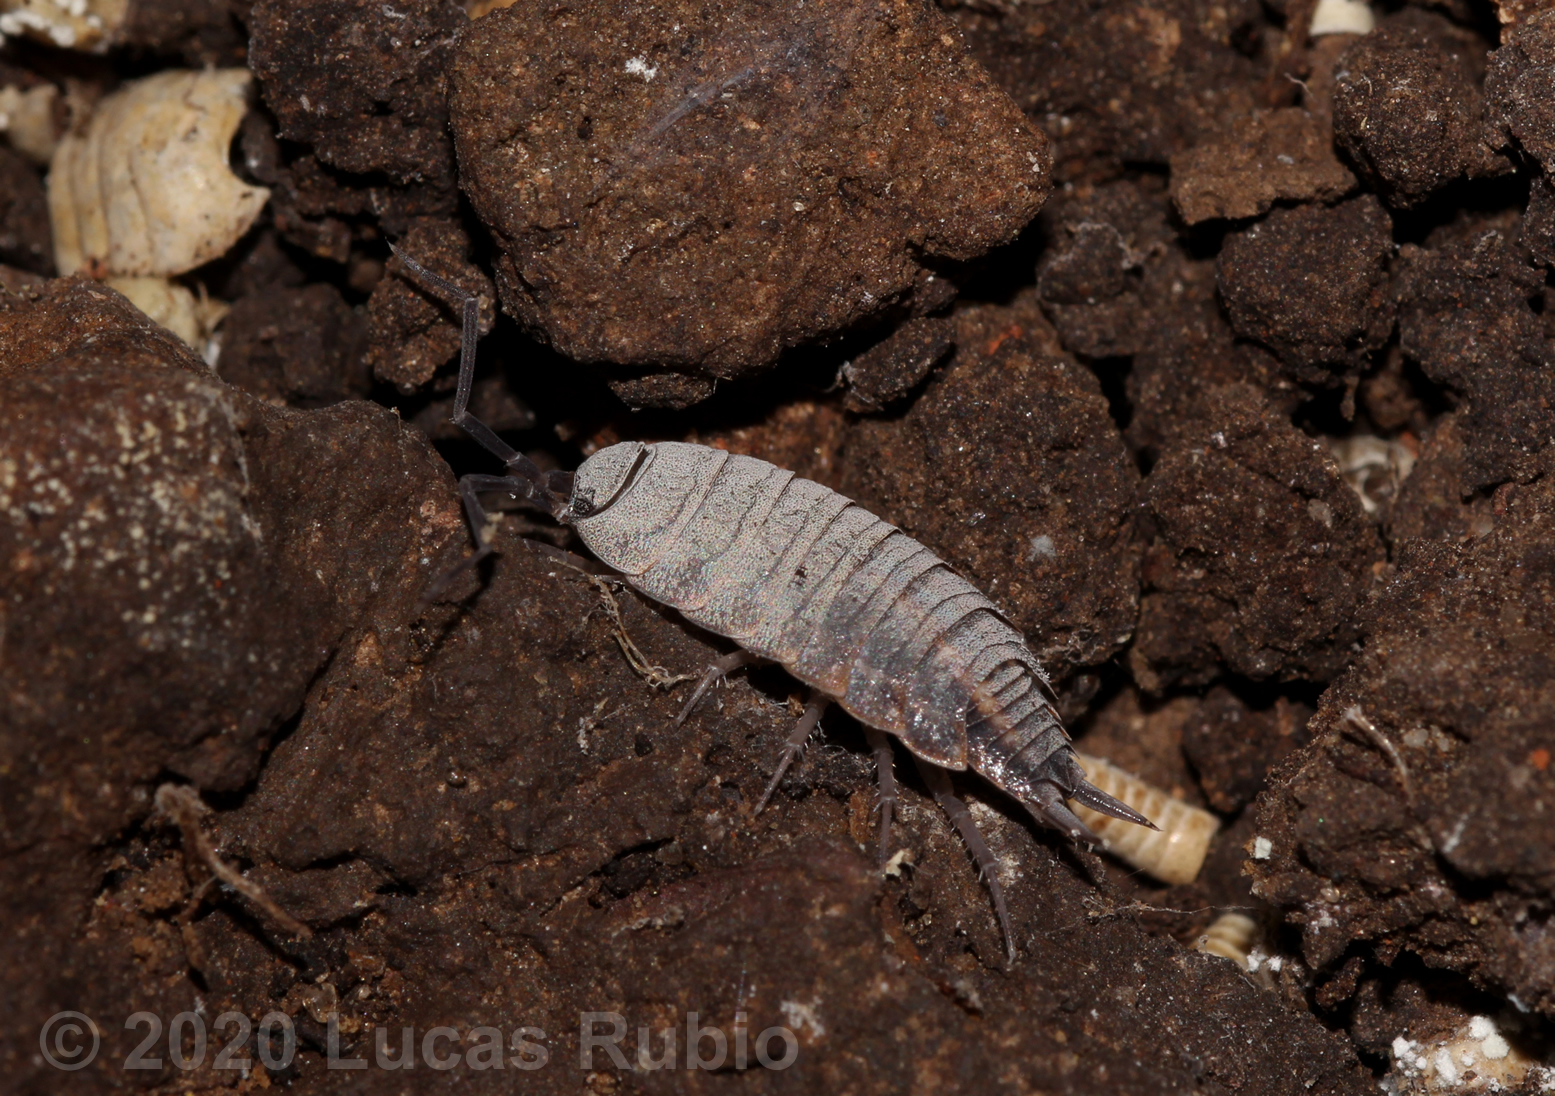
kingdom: Animalia
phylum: Arthropoda
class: Malacostraca
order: Isopoda
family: Porcellionidae
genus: Porcellionides
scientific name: Porcellionides pruinosus
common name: Plum woodlouse
